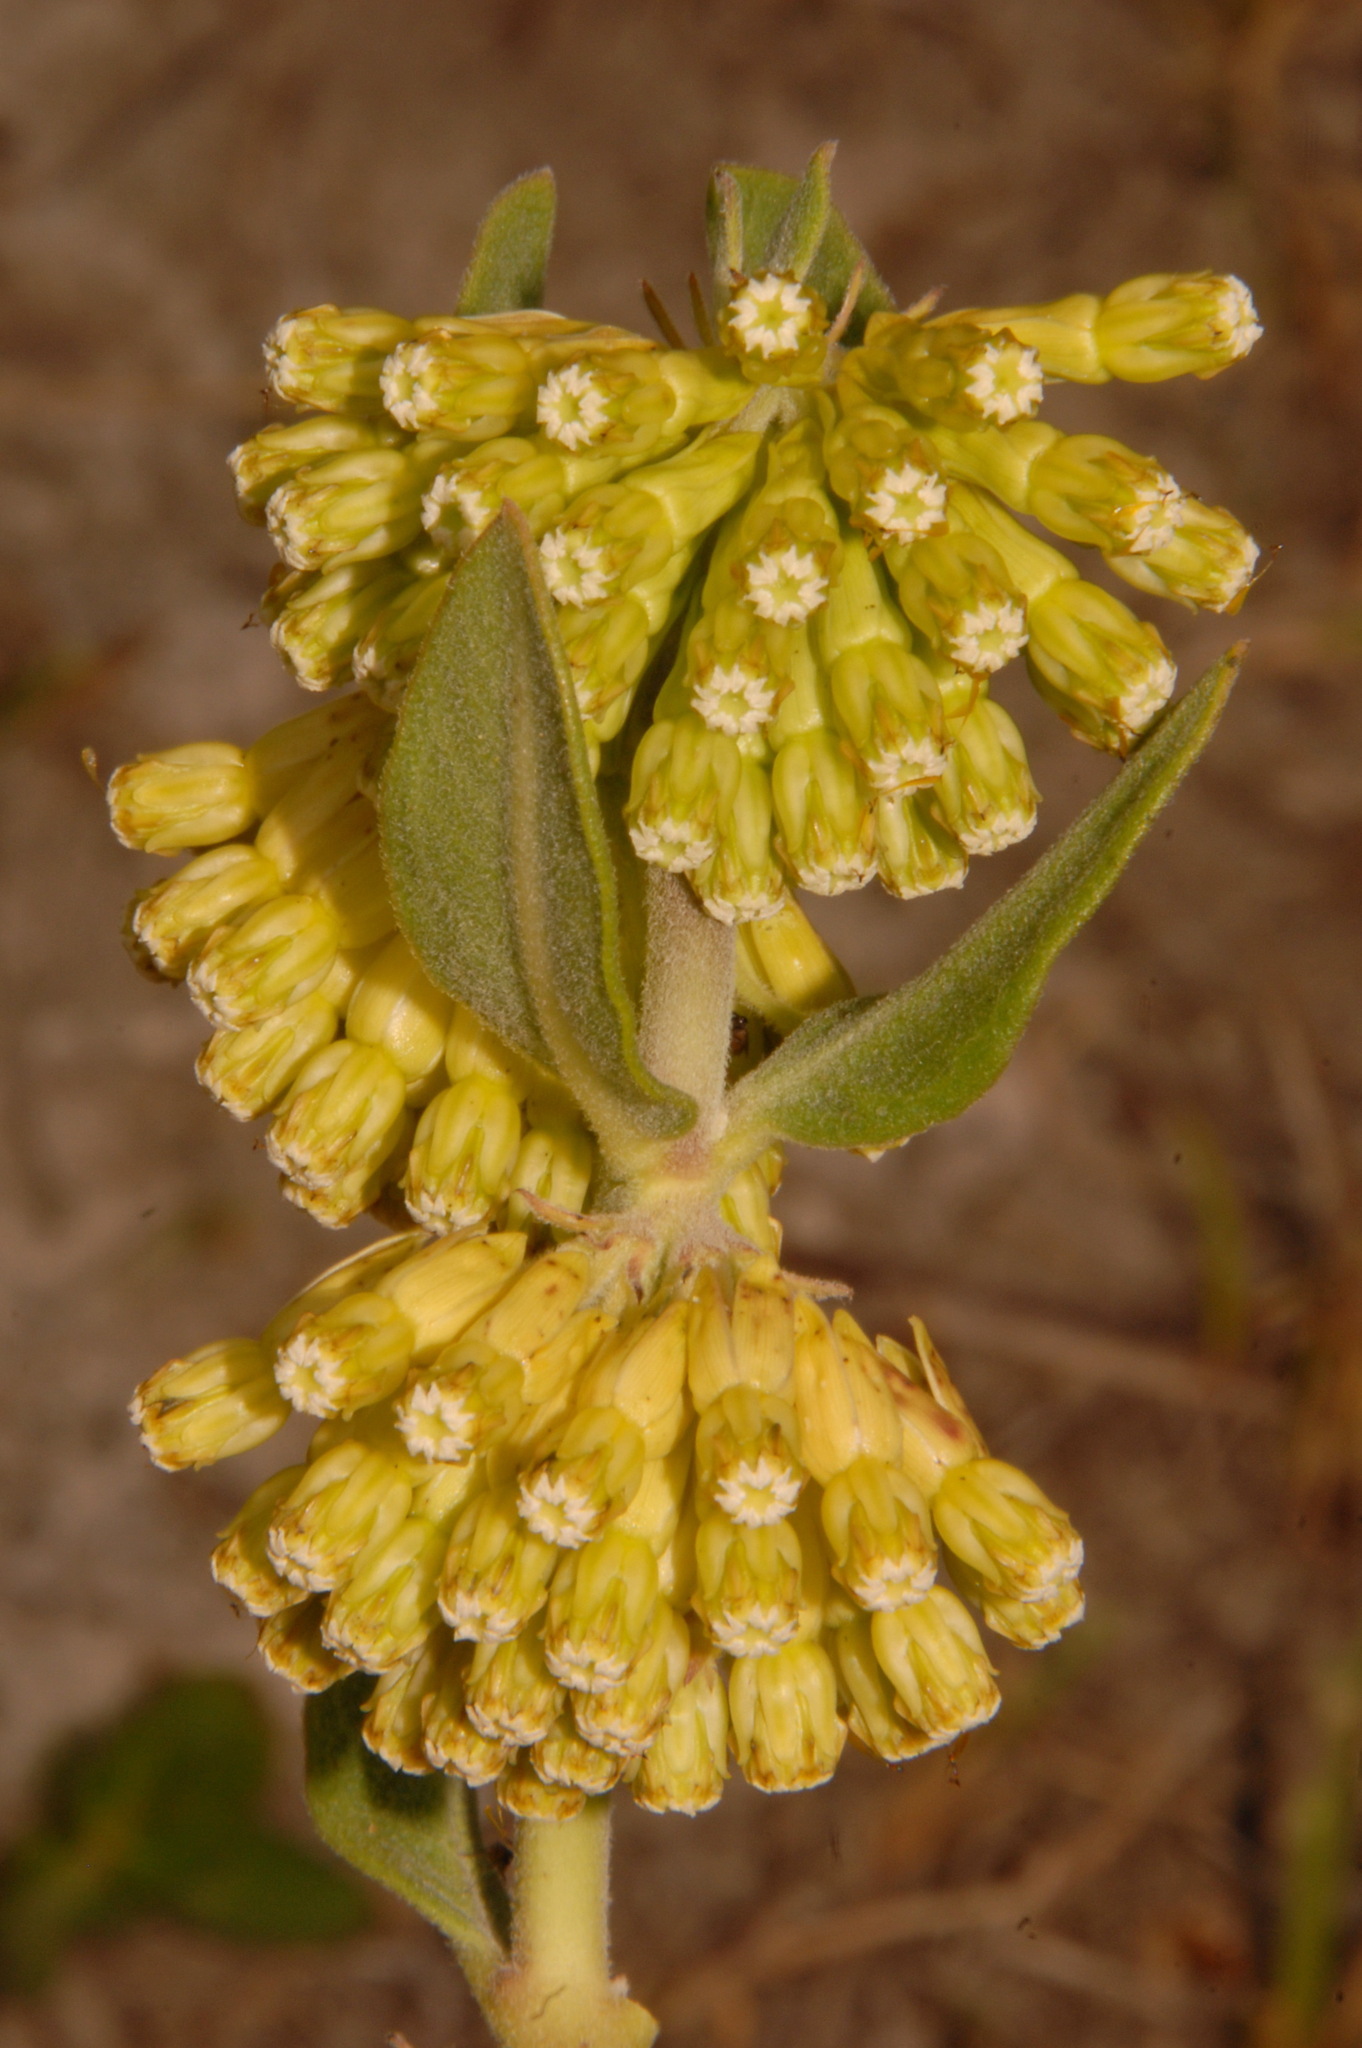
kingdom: Plantae
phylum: Tracheophyta
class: Magnoliopsida
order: Gentianales
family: Apocynaceae
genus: Asclepias
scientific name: Asclepias viridiflora
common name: Green comet milkweed
